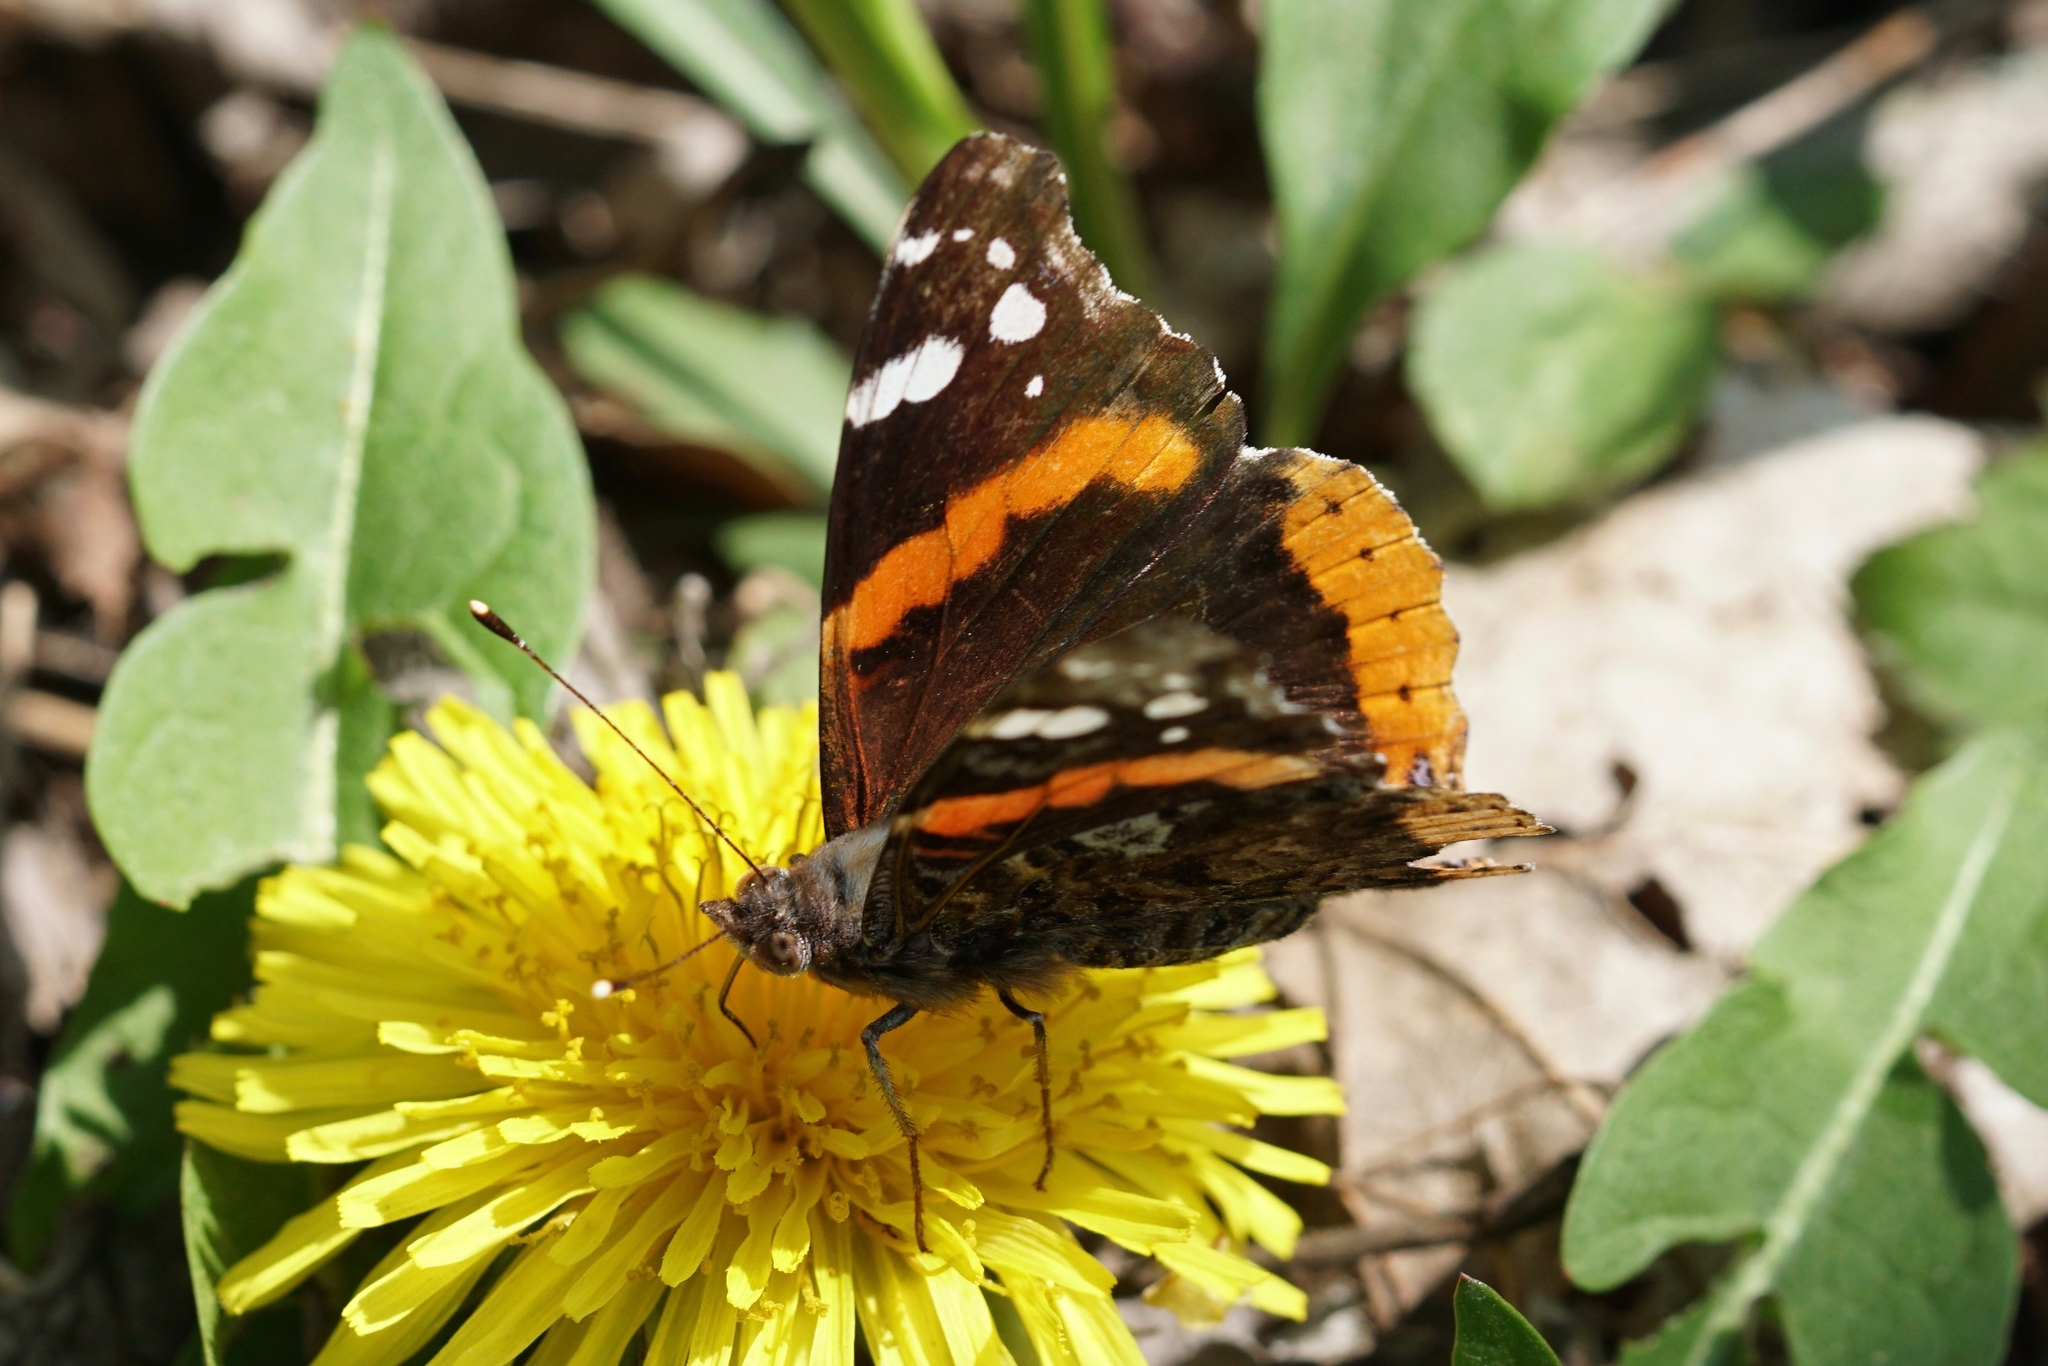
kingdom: Animalia
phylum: Arthropoda
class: Insecta
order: Lepidoptera
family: Nymphalidae
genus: Vanessa
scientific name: Vanessa atalanta
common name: Red admiral
